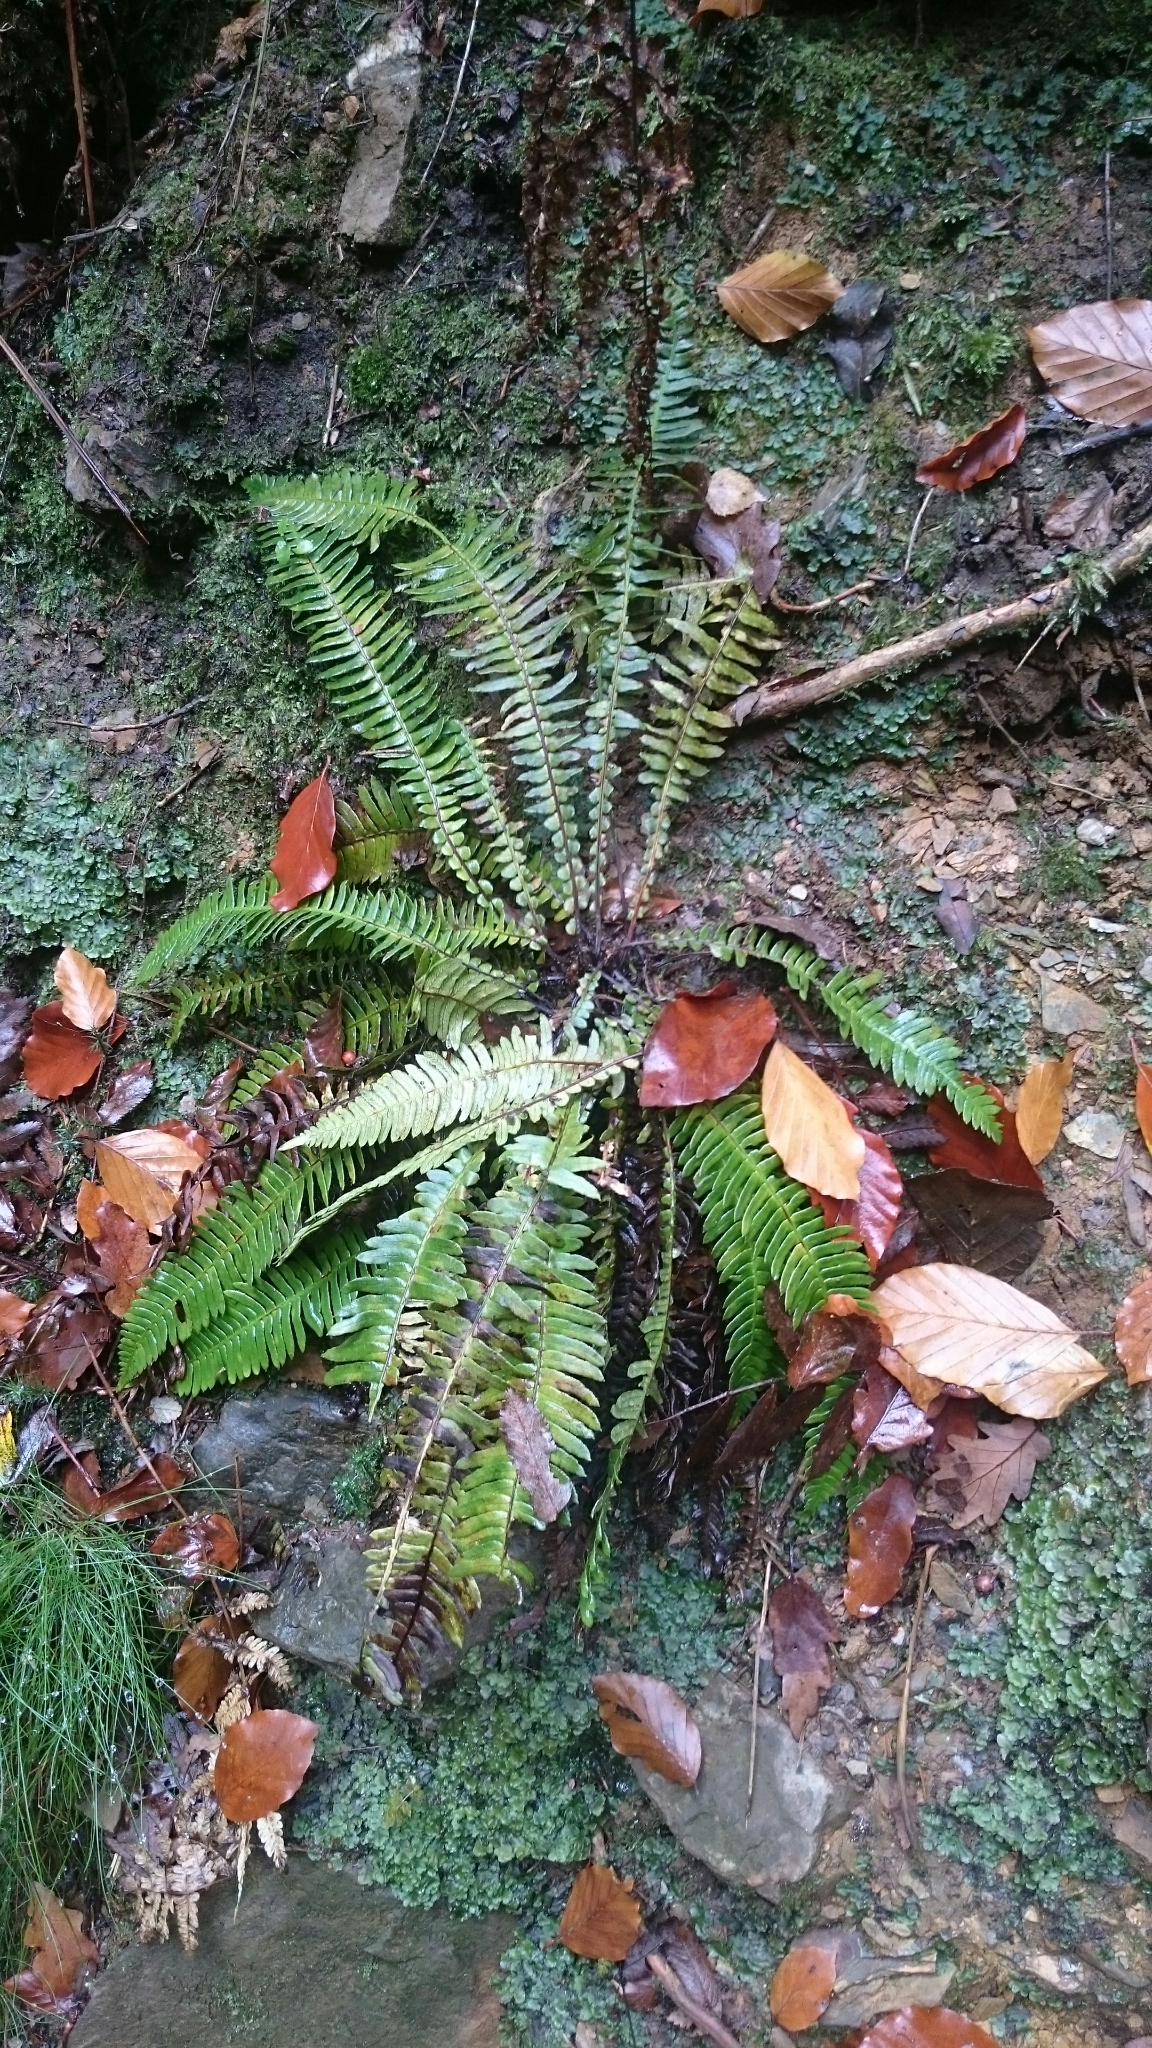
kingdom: Plantae
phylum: Tracheophyta
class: Polypodiopsida
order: Polypodiales
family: Blechnaceae
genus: Struthiopteris
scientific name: Struthiopteris spicant
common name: Deer fern
